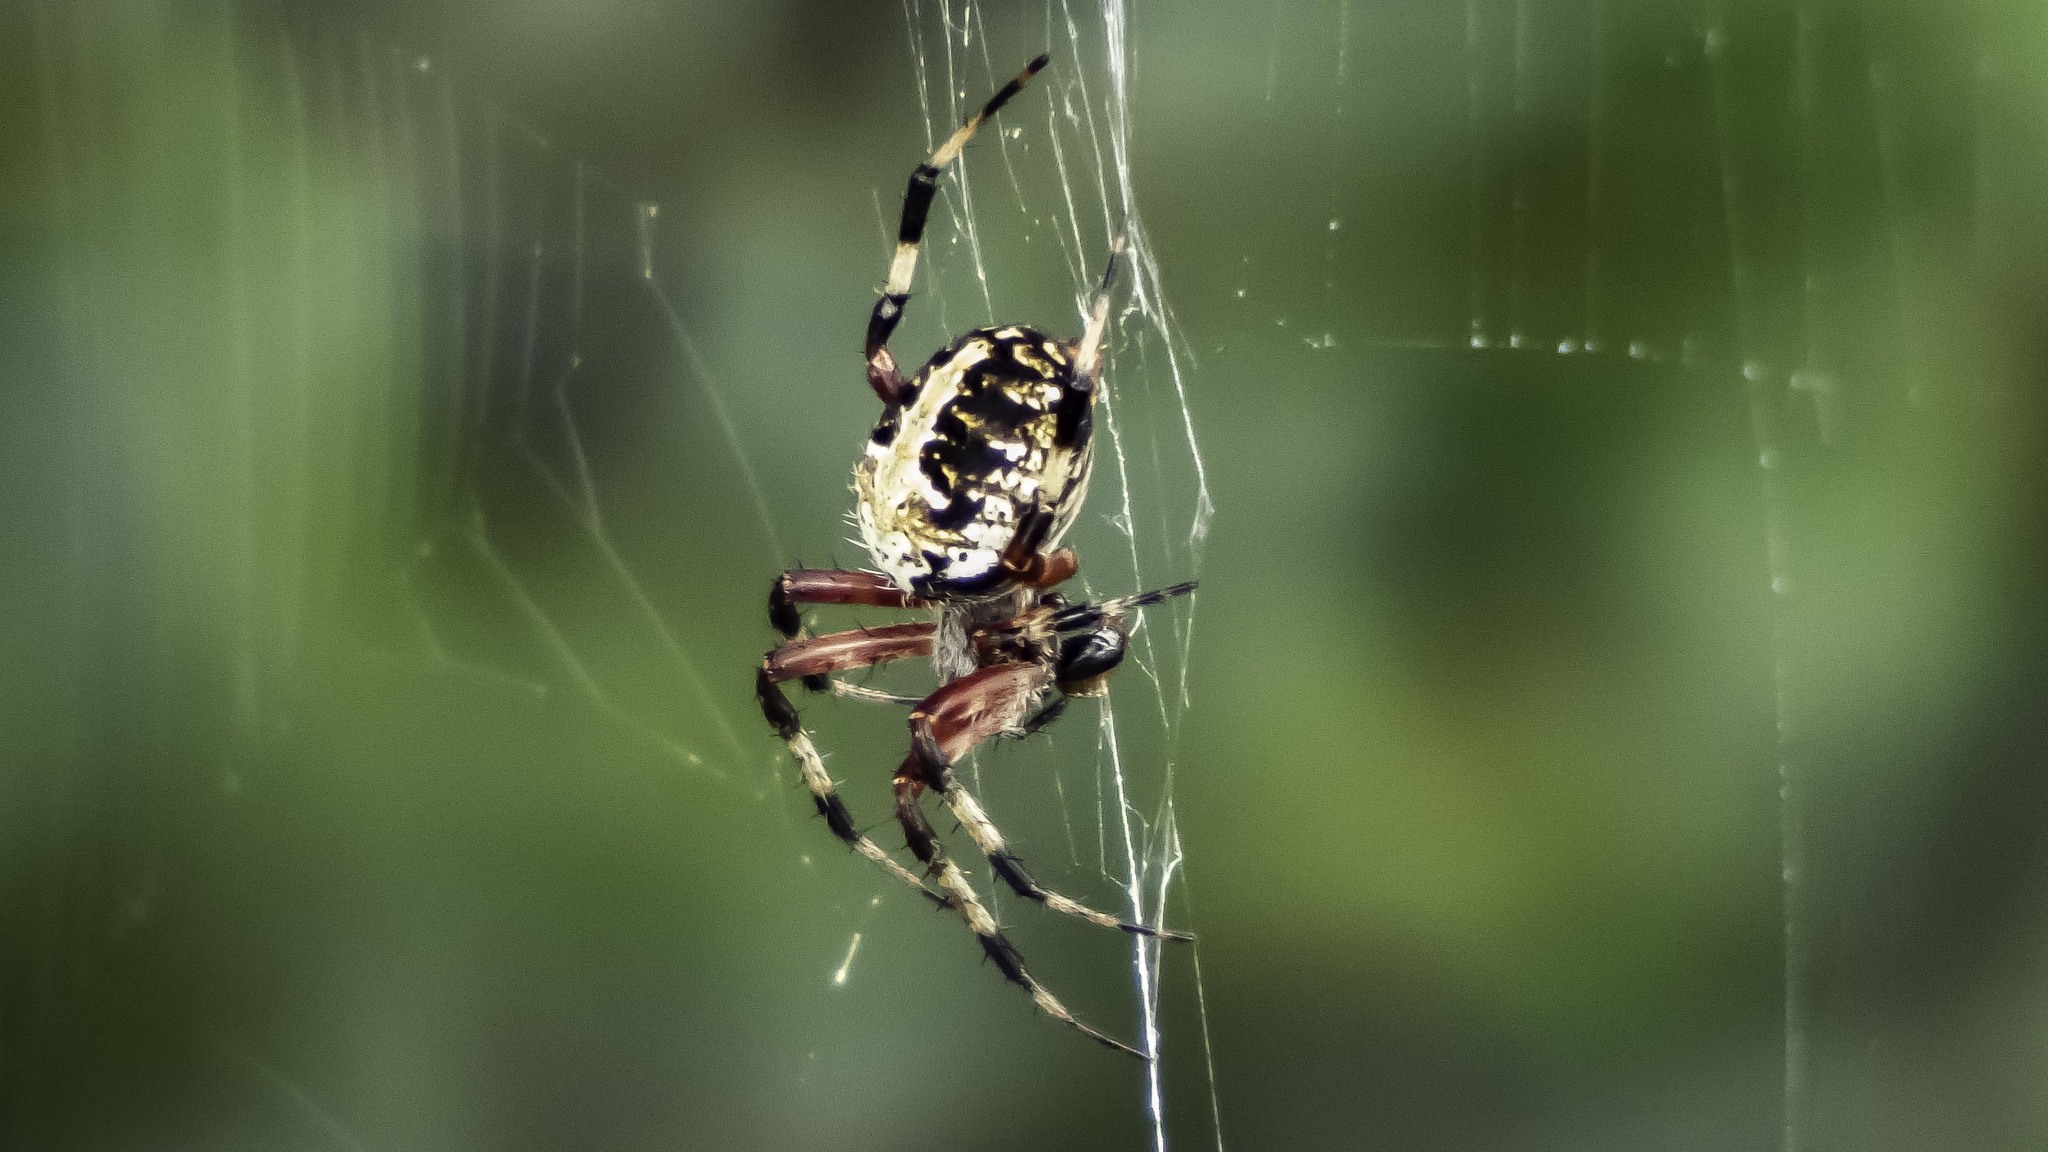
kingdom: Animalia
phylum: Arthropoda
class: Arachnida
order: Araneae
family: Araneidae
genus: Neoscona
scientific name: Neoscona domiciliorum
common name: Red-femured spotted orbweaver
